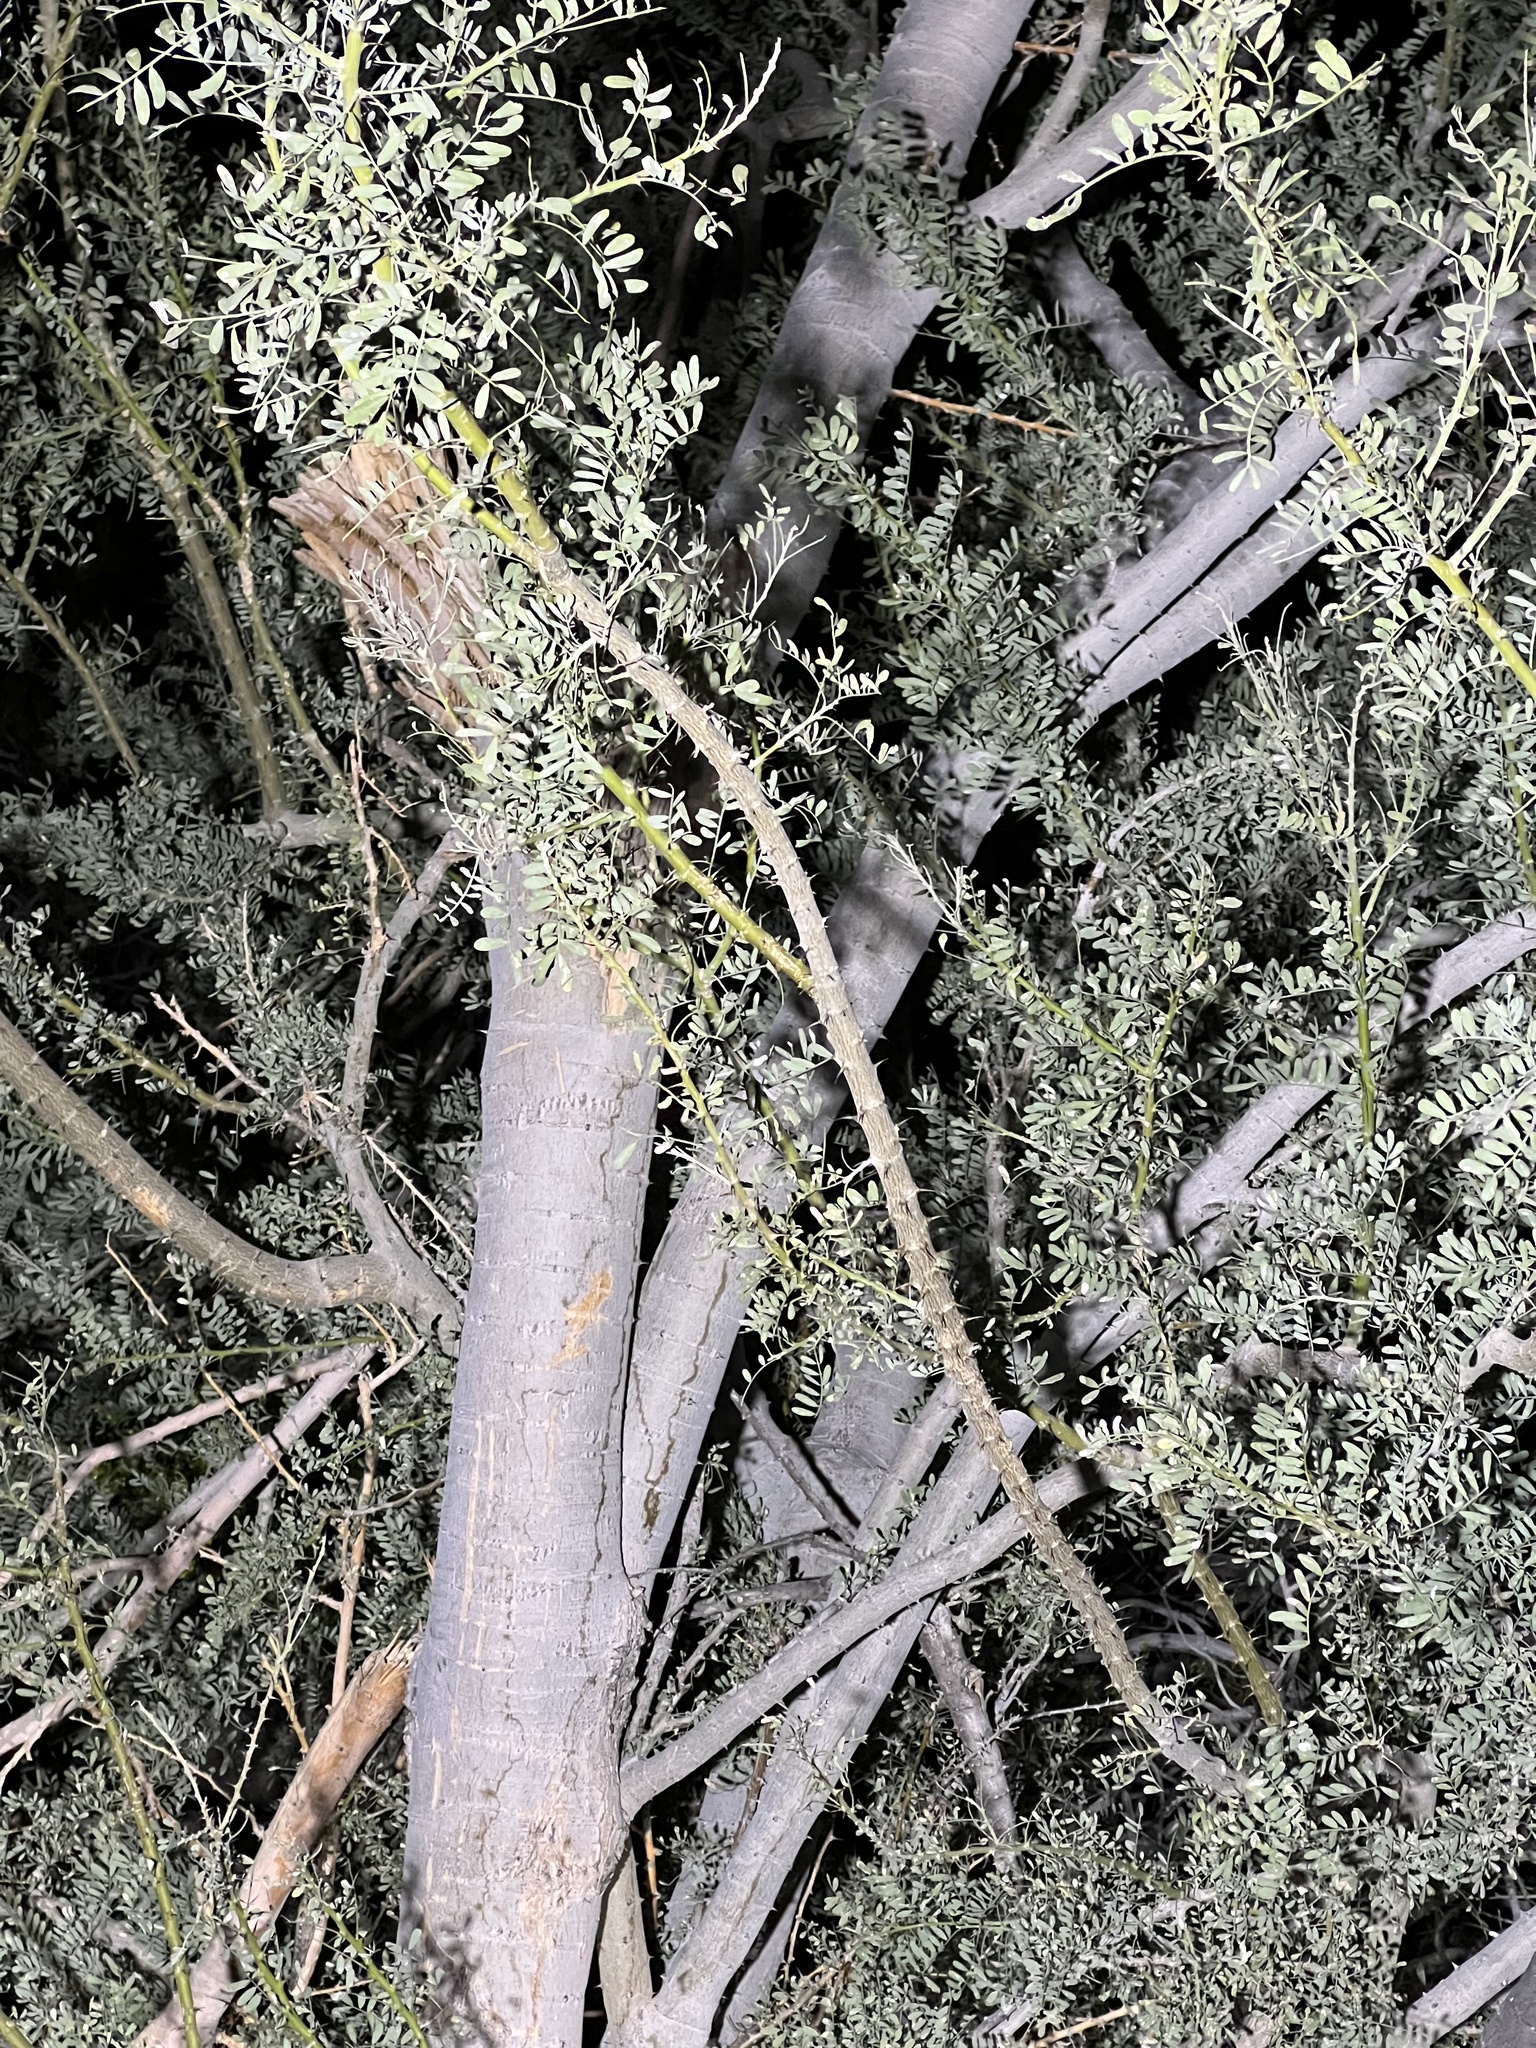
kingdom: Plantae
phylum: Tracheophyta
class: Magnoliopsida
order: Fabales
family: Fabaceae
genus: Olneya
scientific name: Olneya tesota
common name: Desert ironwood
